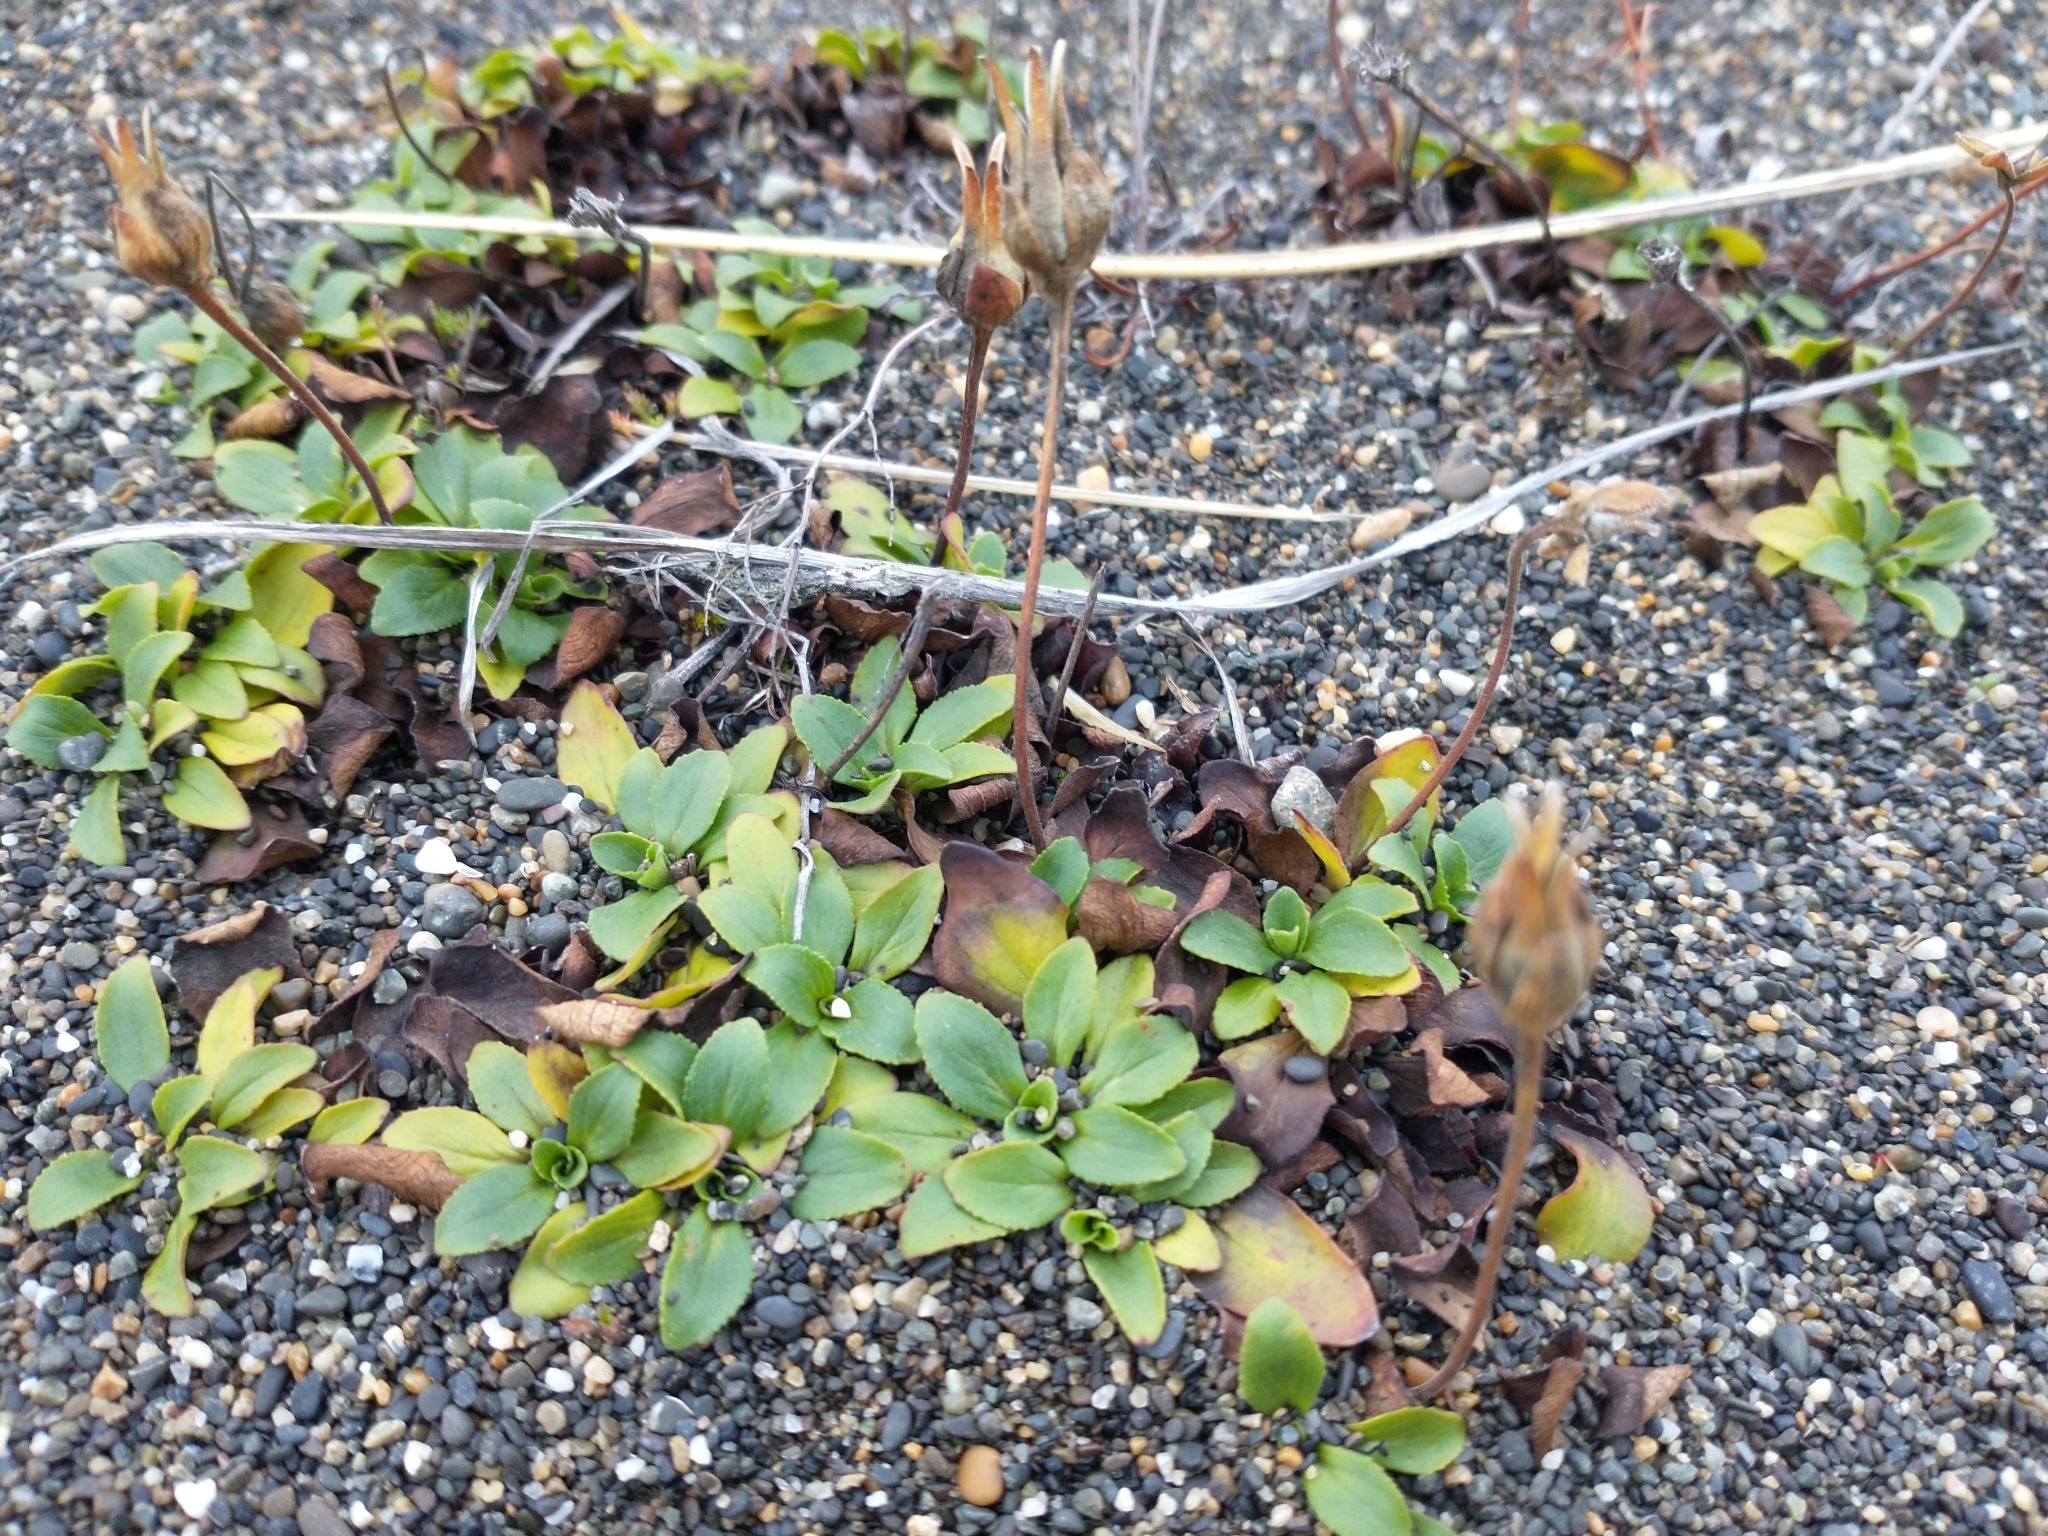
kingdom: Plantae
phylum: Tracheophyta
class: Magnoliopsida
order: Lamiales
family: Calceolariaceae
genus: Calceolaria
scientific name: Calceolaria uniflora
